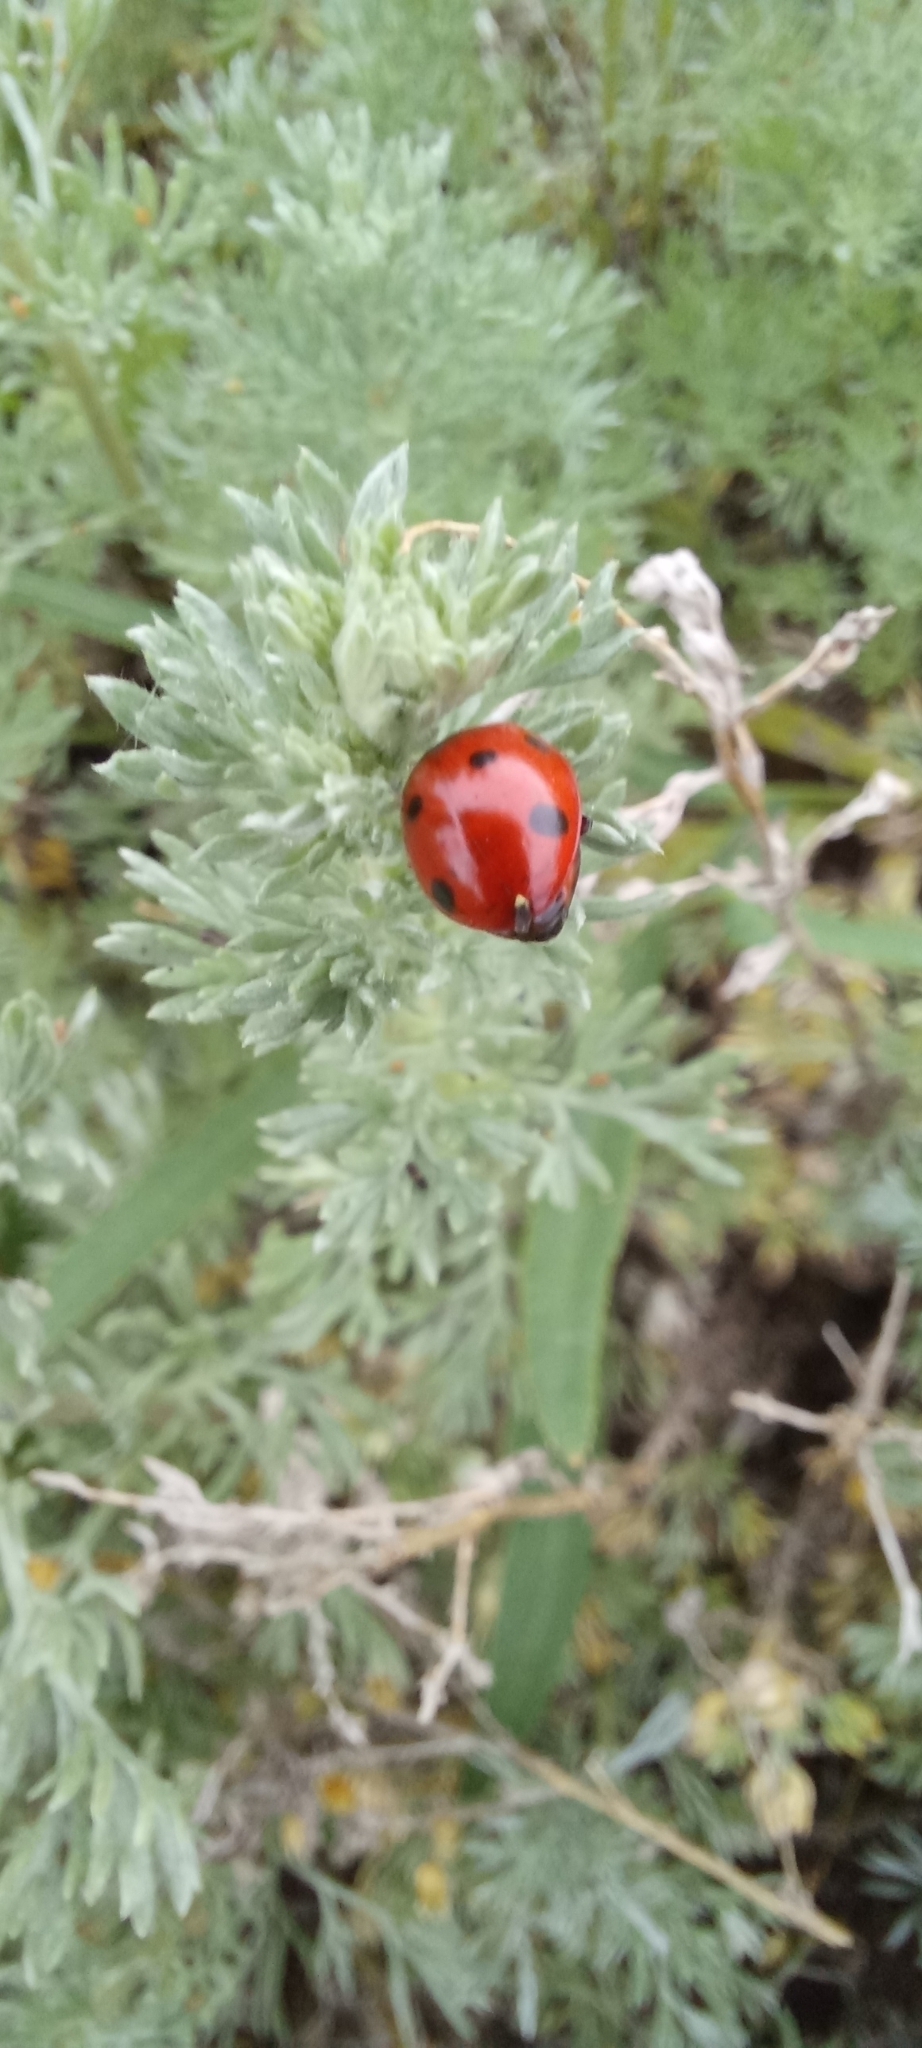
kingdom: Animalia
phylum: Arthropoda
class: Insecta
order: Coleoptera
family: Coccinellidae
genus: Coccinella
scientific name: Coccinella septempunctata
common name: Sevenspotted lady beetle
